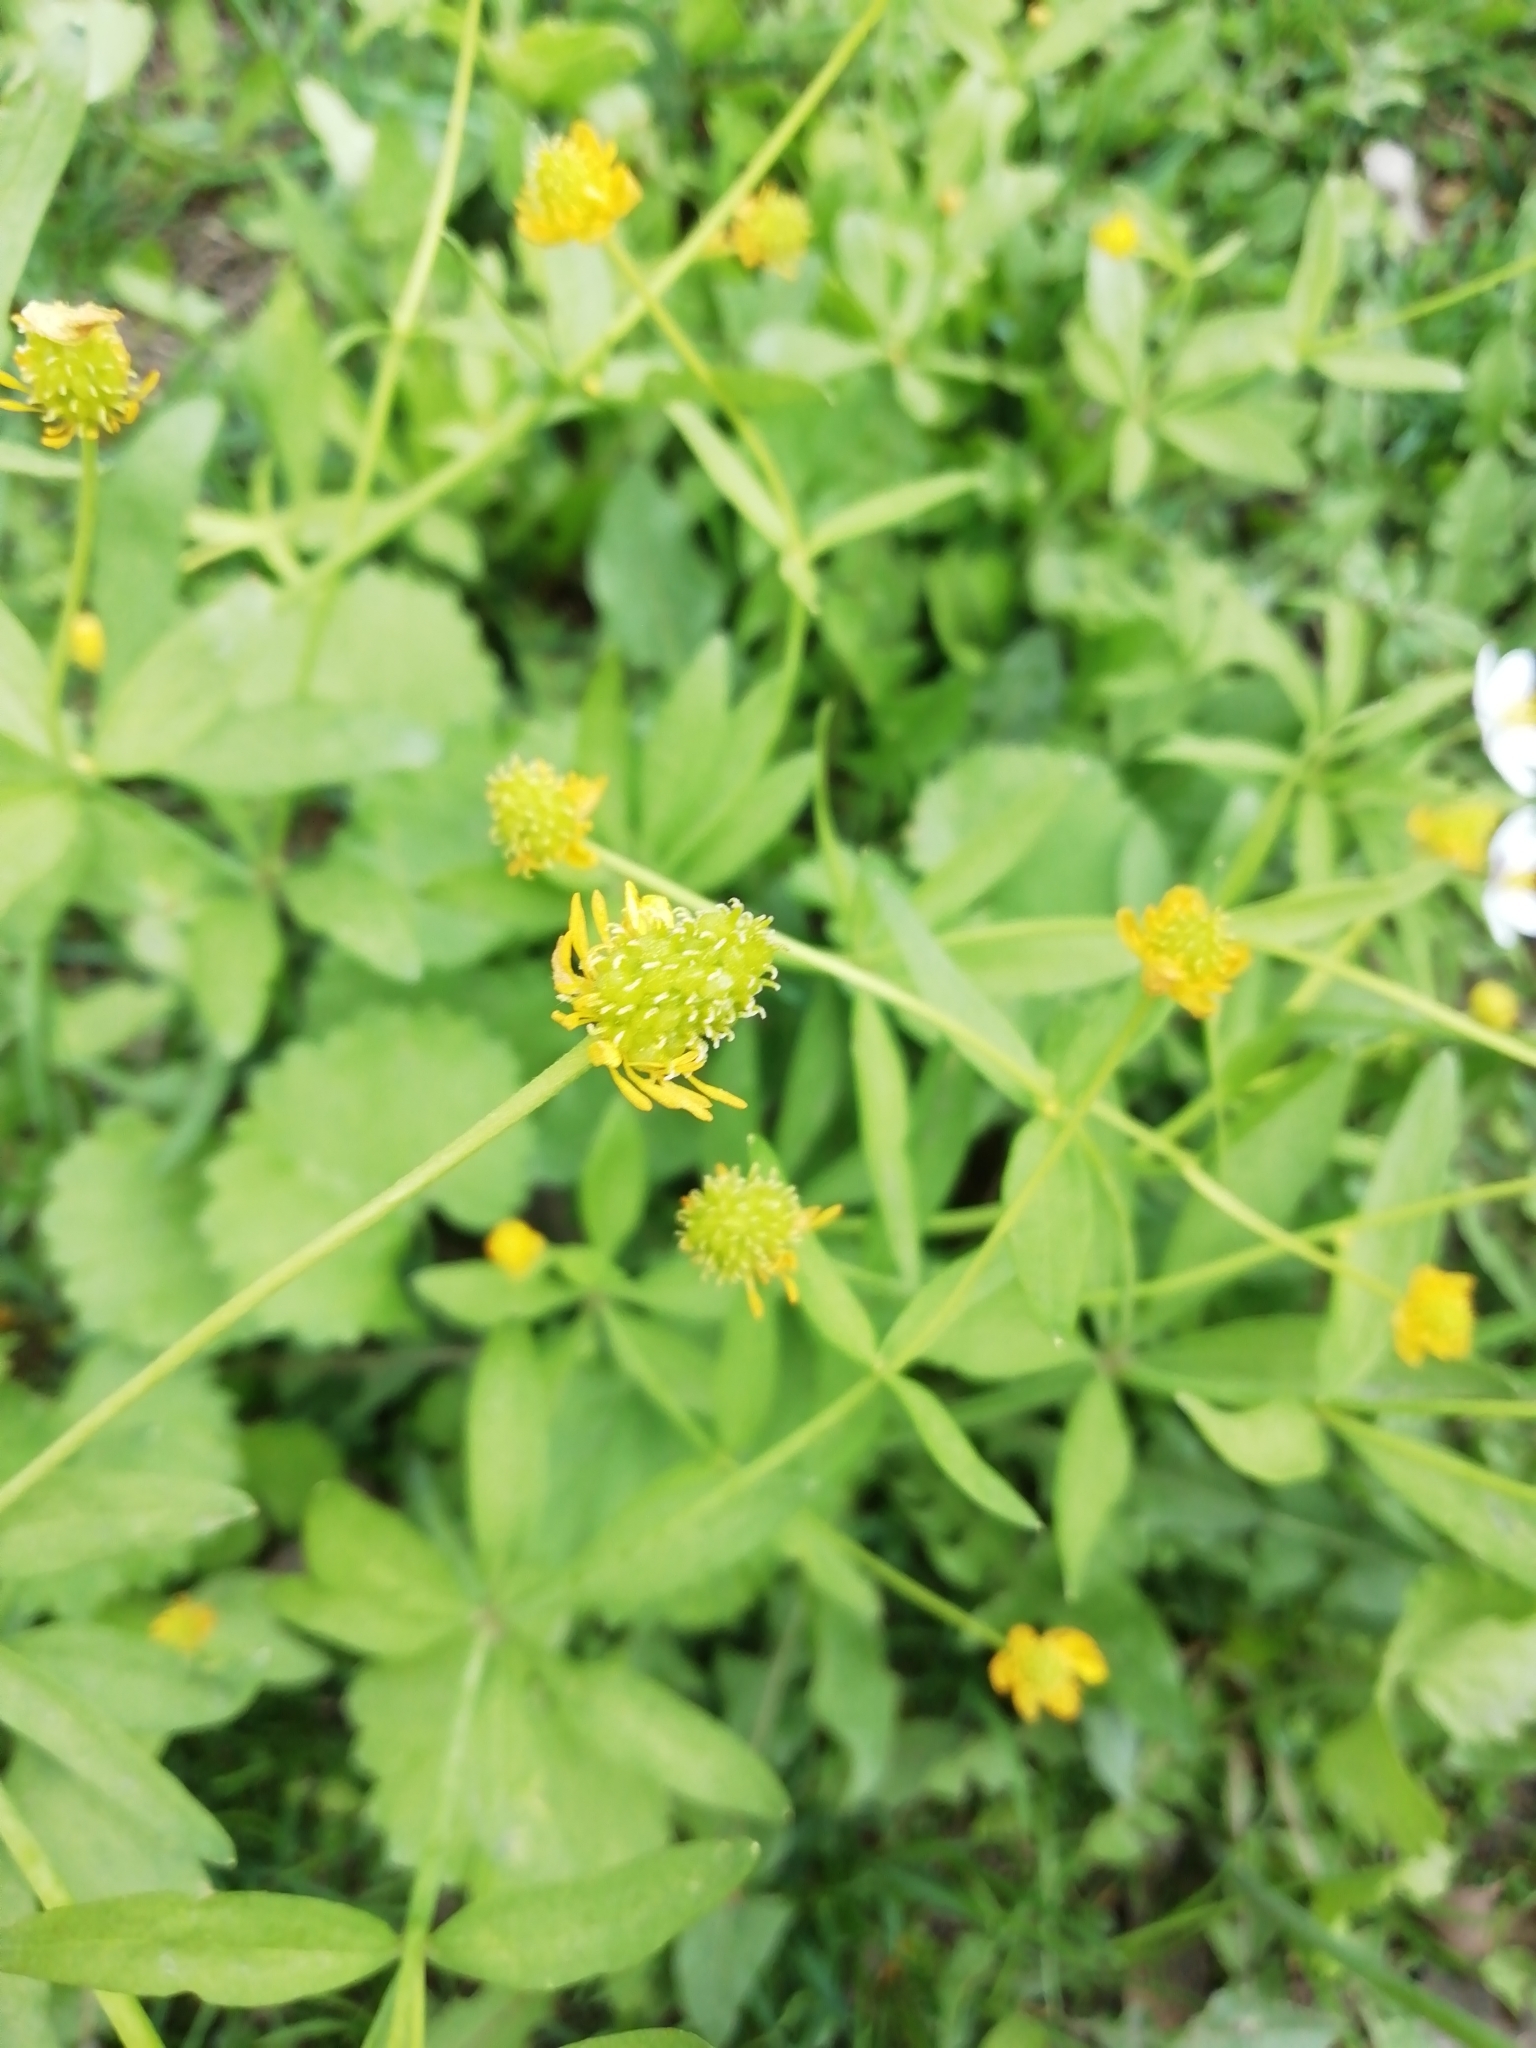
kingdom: Plantae
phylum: Tracheophyta
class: Magnoliopsida
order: Ranunculales
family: Ranunculaceae
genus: Ranunculus
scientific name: Ranunculus monophyllus
